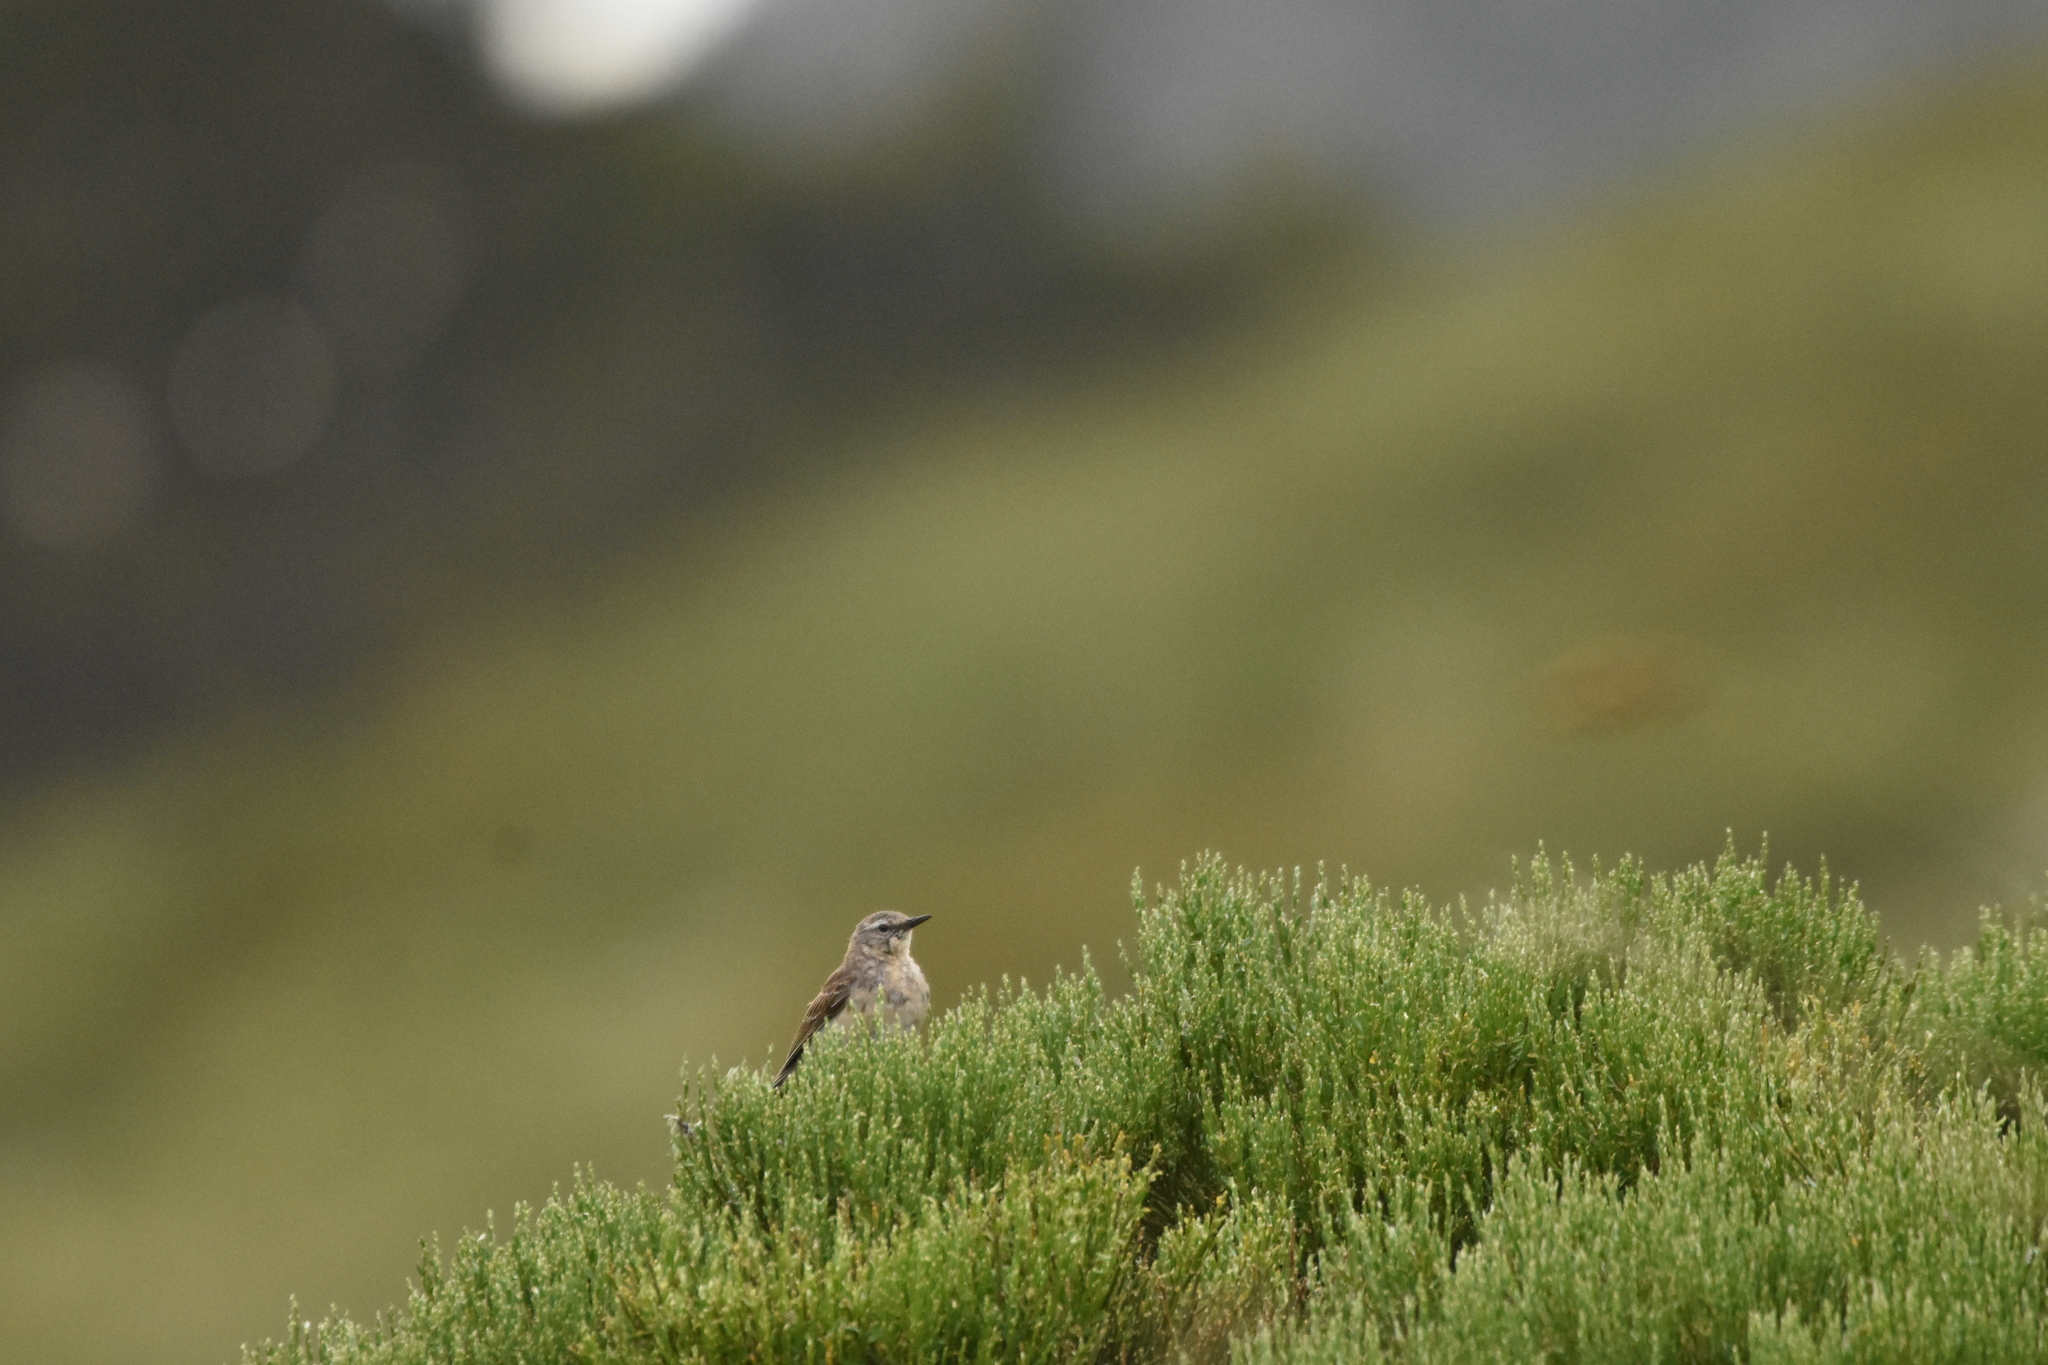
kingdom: Animalia
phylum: Chordata
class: Aves
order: Passeriformes
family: Motacillidae
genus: Anthus
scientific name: Anthus spinoletta
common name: Water pipit
